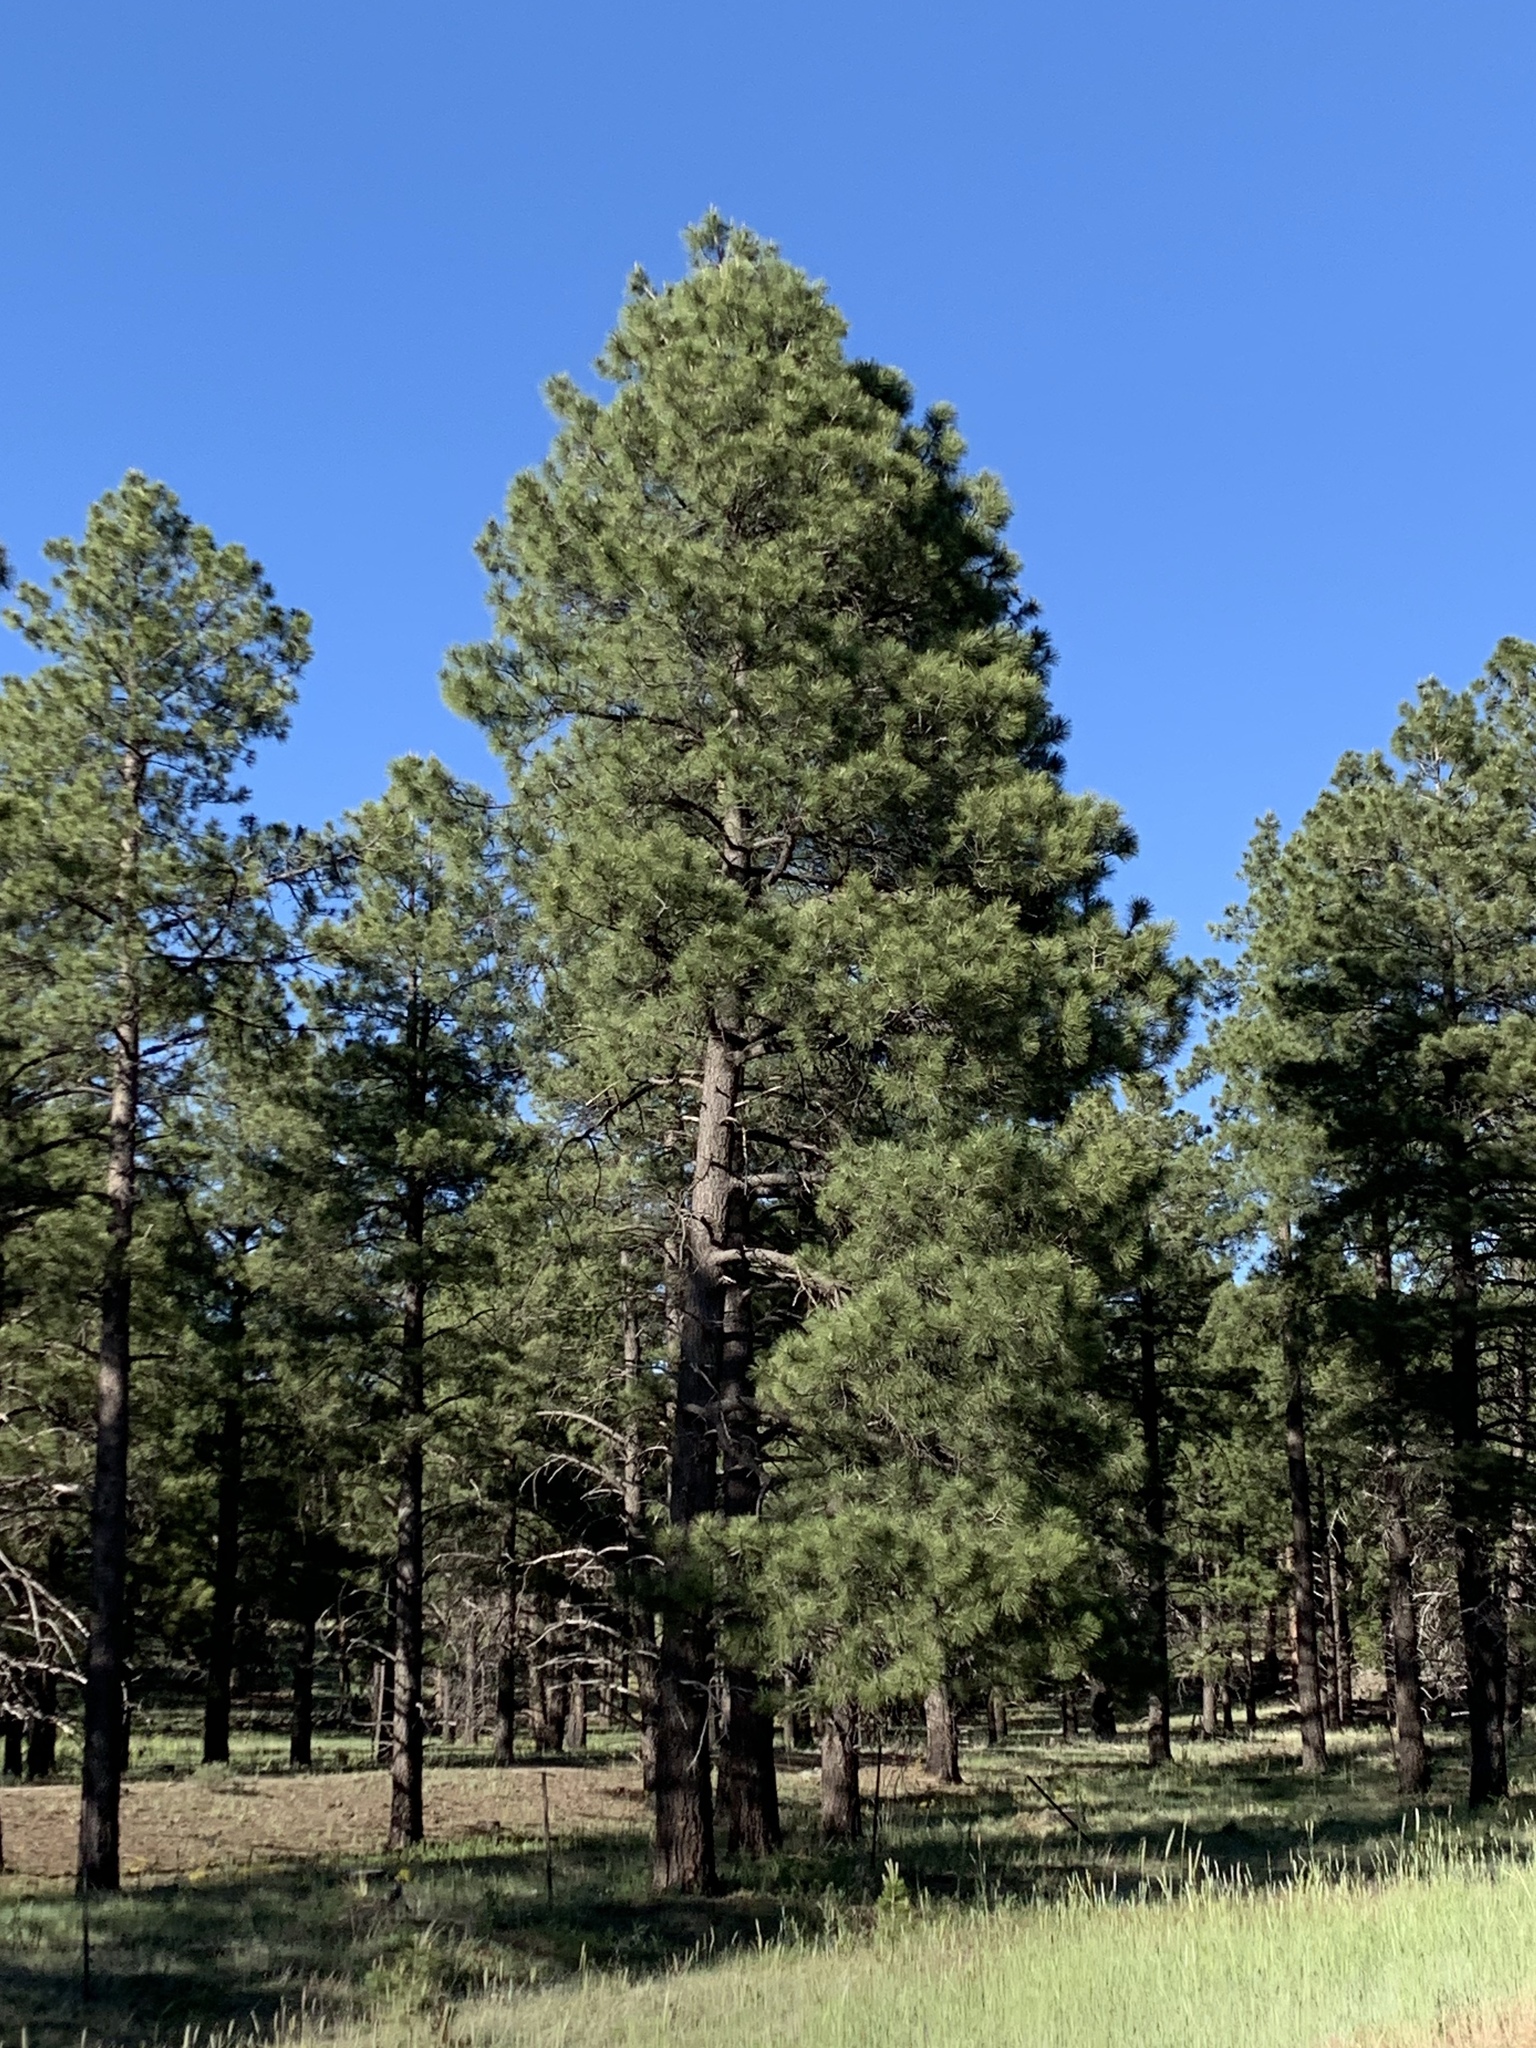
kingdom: Plantae
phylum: Tracheophyta
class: Pinopsida
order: Pinales
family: Pinaceae
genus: Pinus
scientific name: Pinus ponderosa
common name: Western yellow-pine
